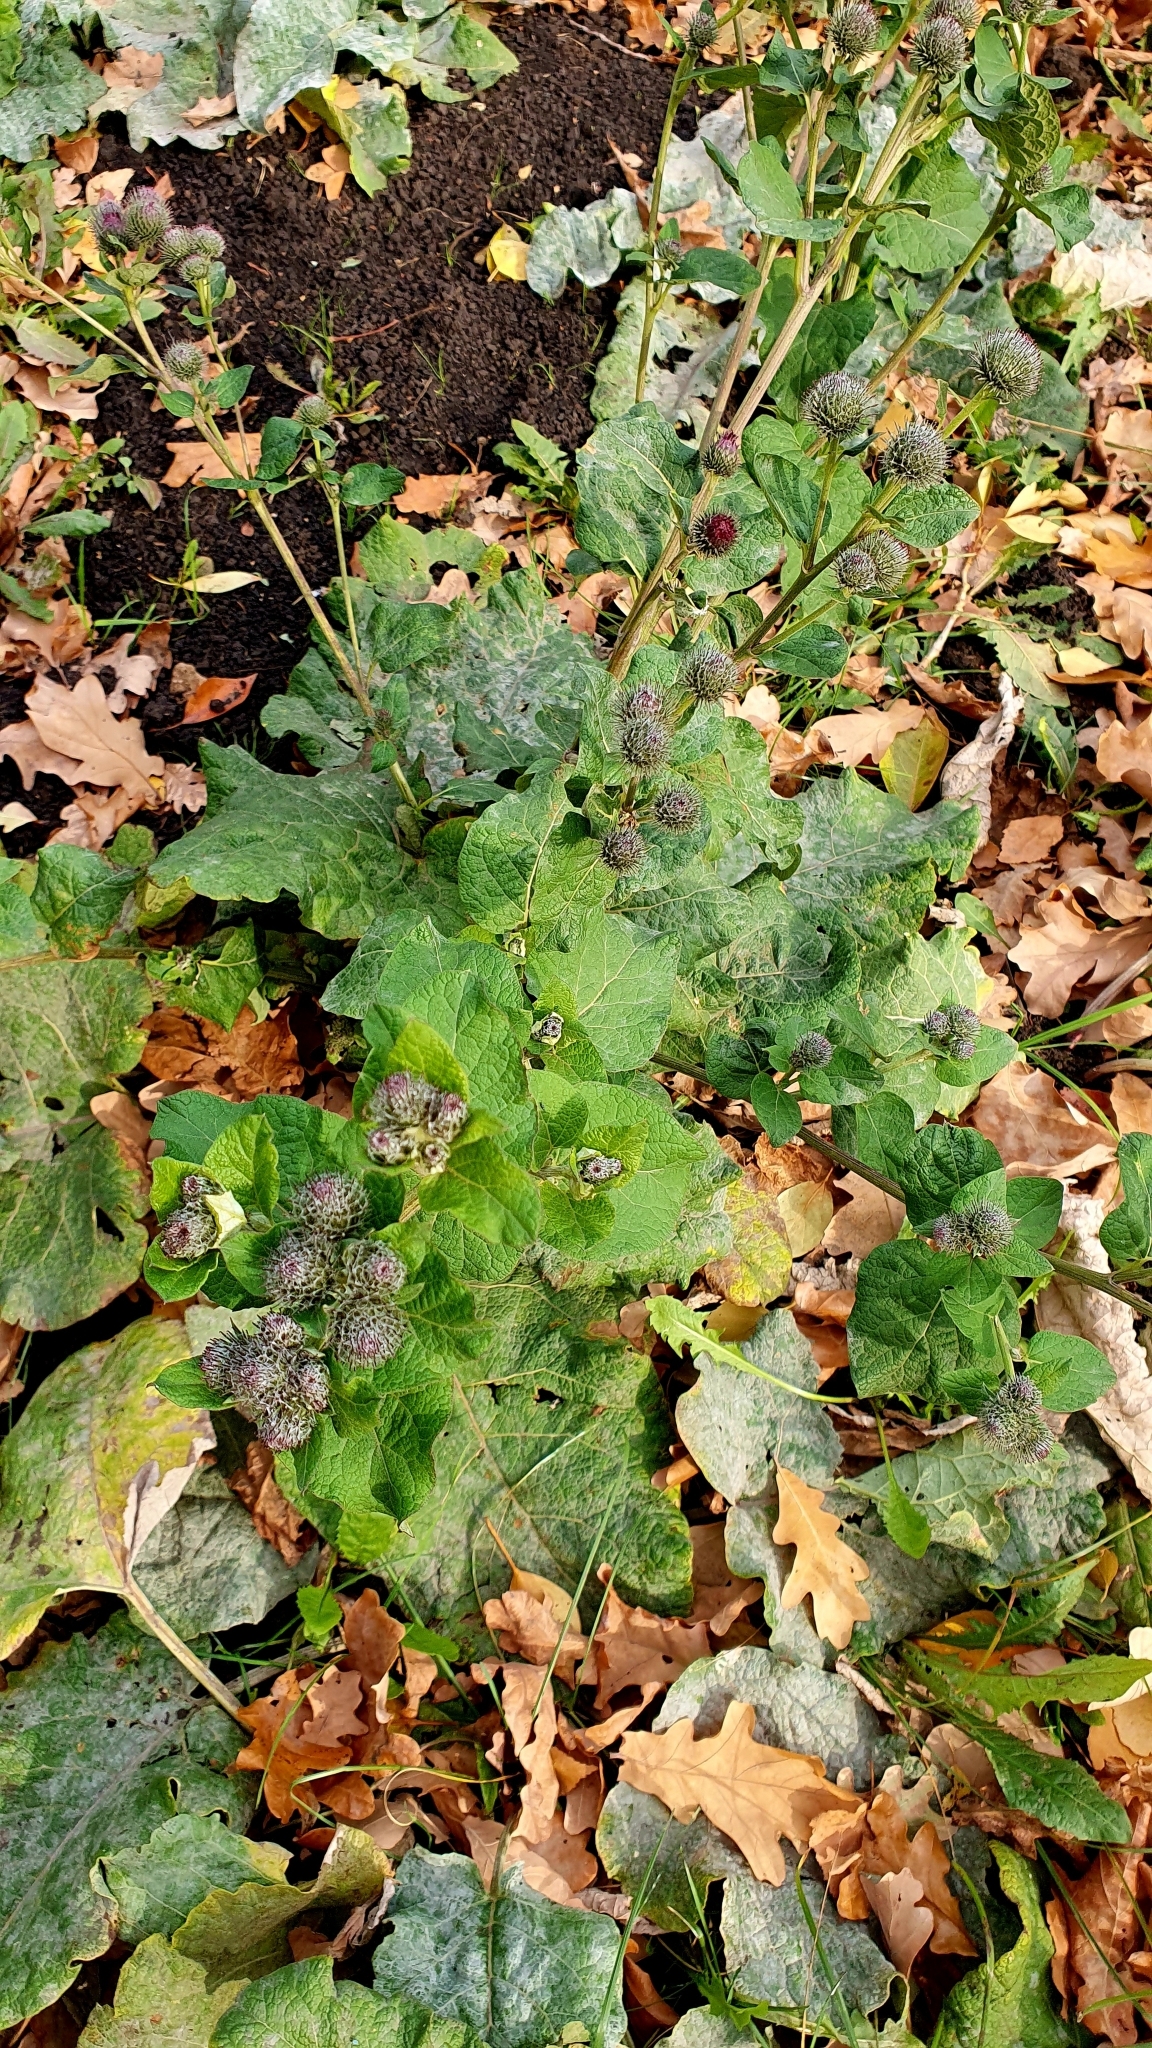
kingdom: Plantae
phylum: Tracheophyta
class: Magnoliopsida
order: Asterales
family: Asteraceae
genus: Arctium
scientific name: Arctium tomentosum
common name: Woolly burdock
